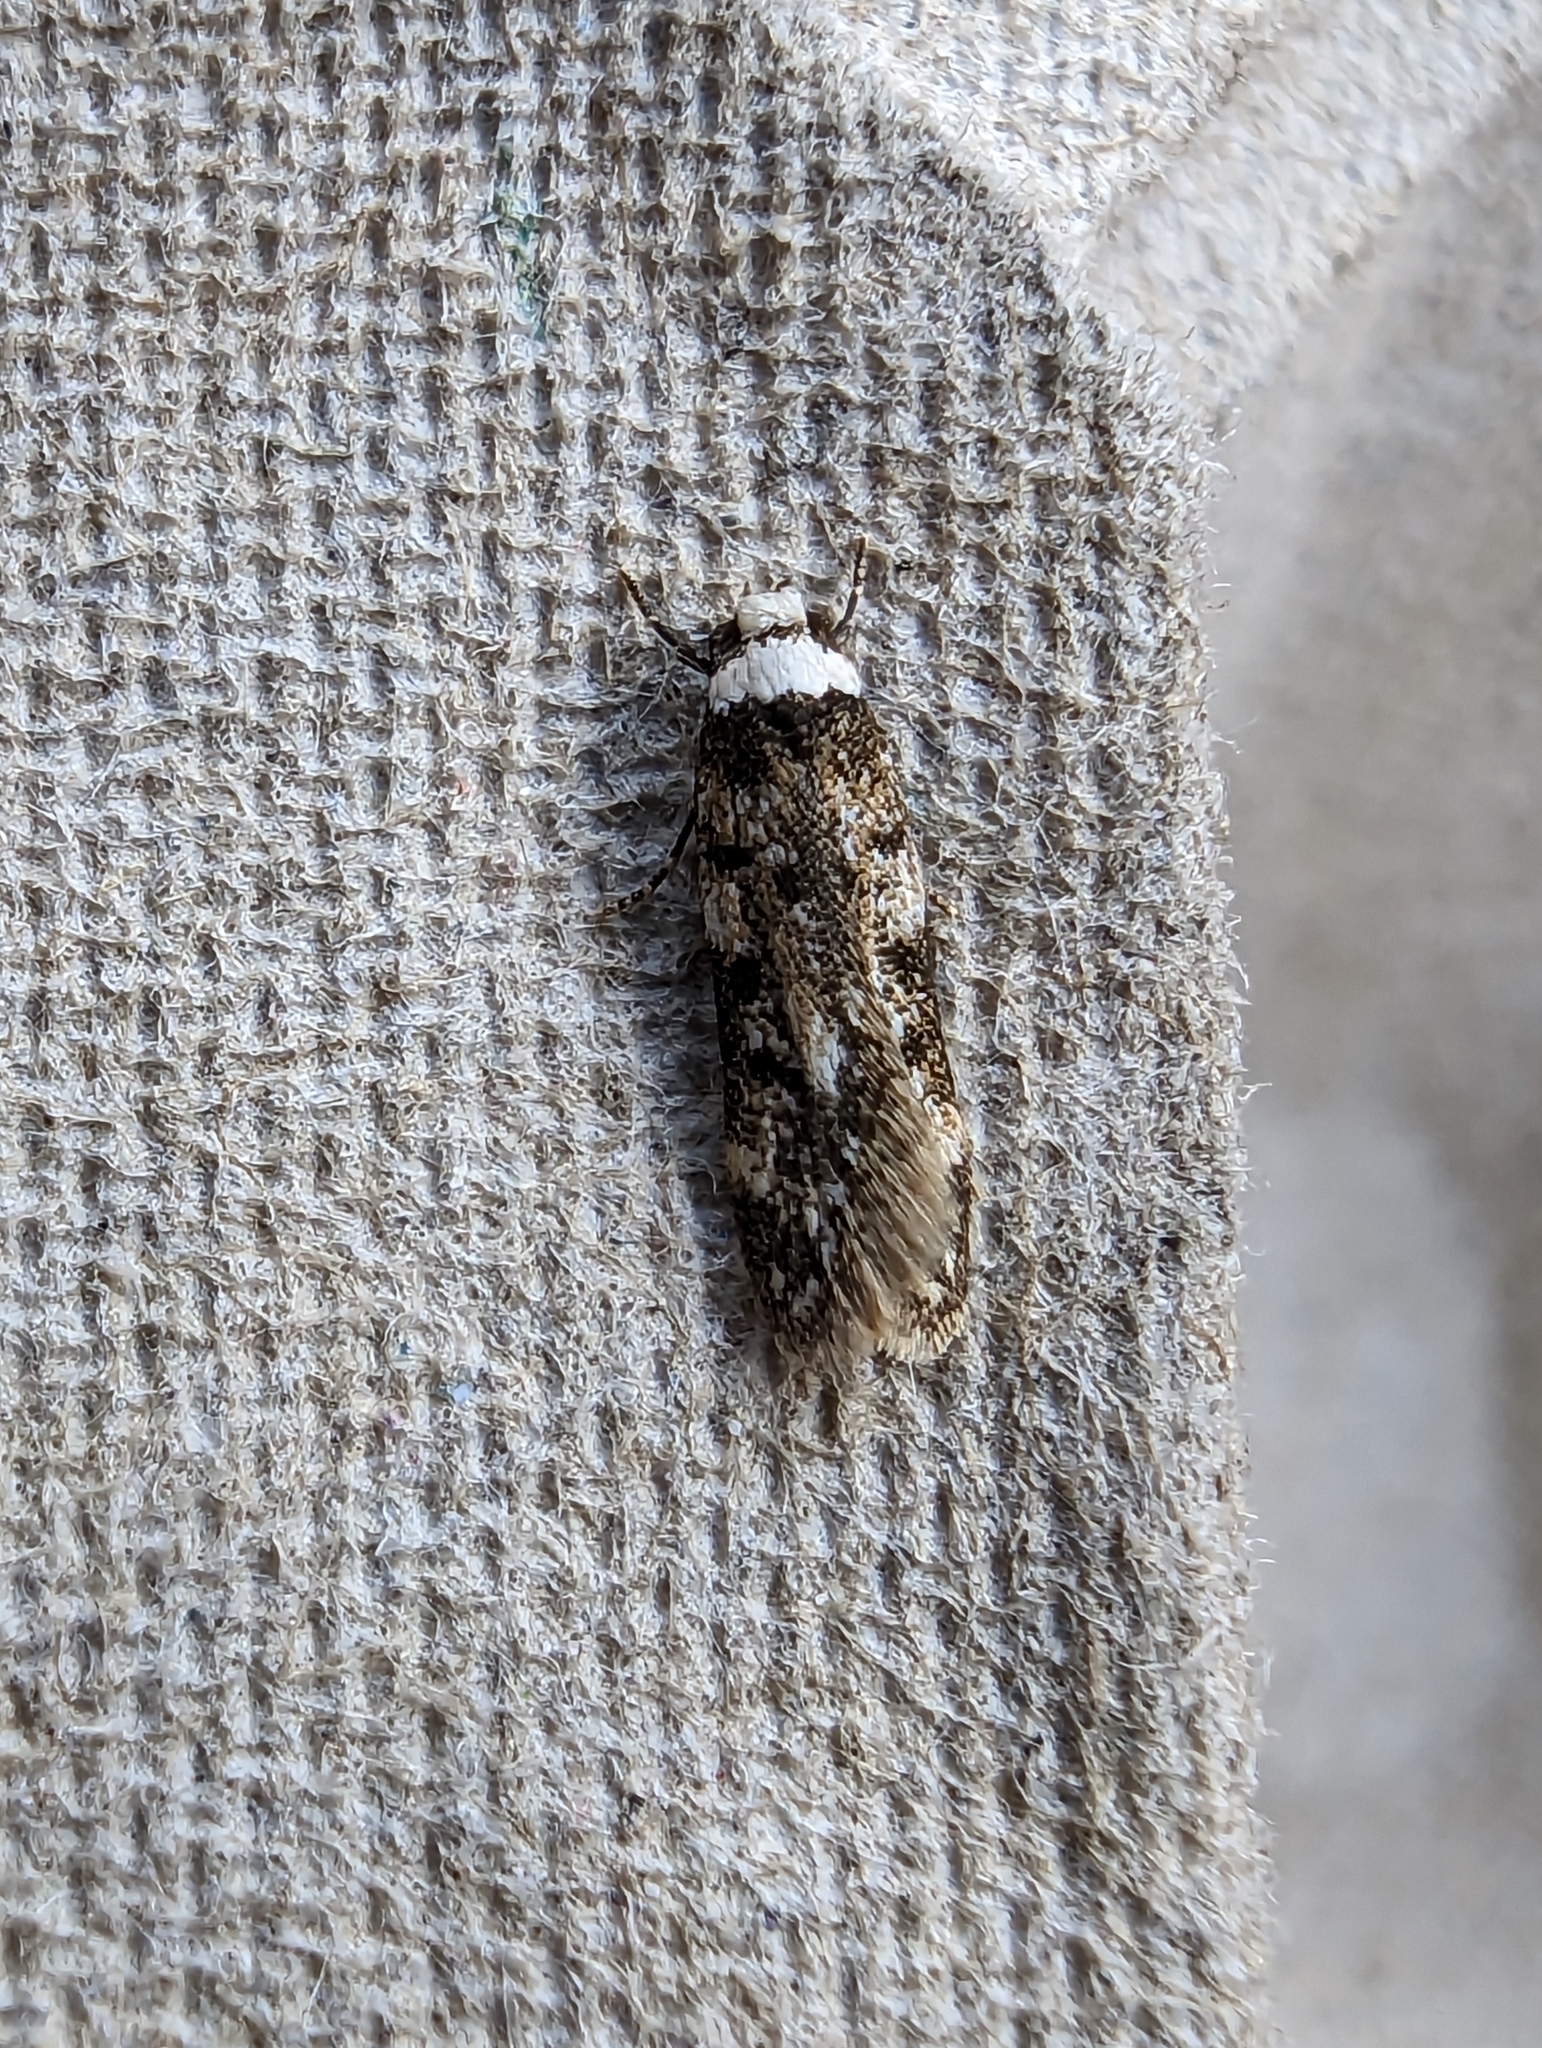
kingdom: Animalia
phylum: Arthropoda
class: Insecta
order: Lepidoptera
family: Oecophoridae
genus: Endrosis
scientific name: Endrosis sarcitrella
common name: White-shouldered house moth
